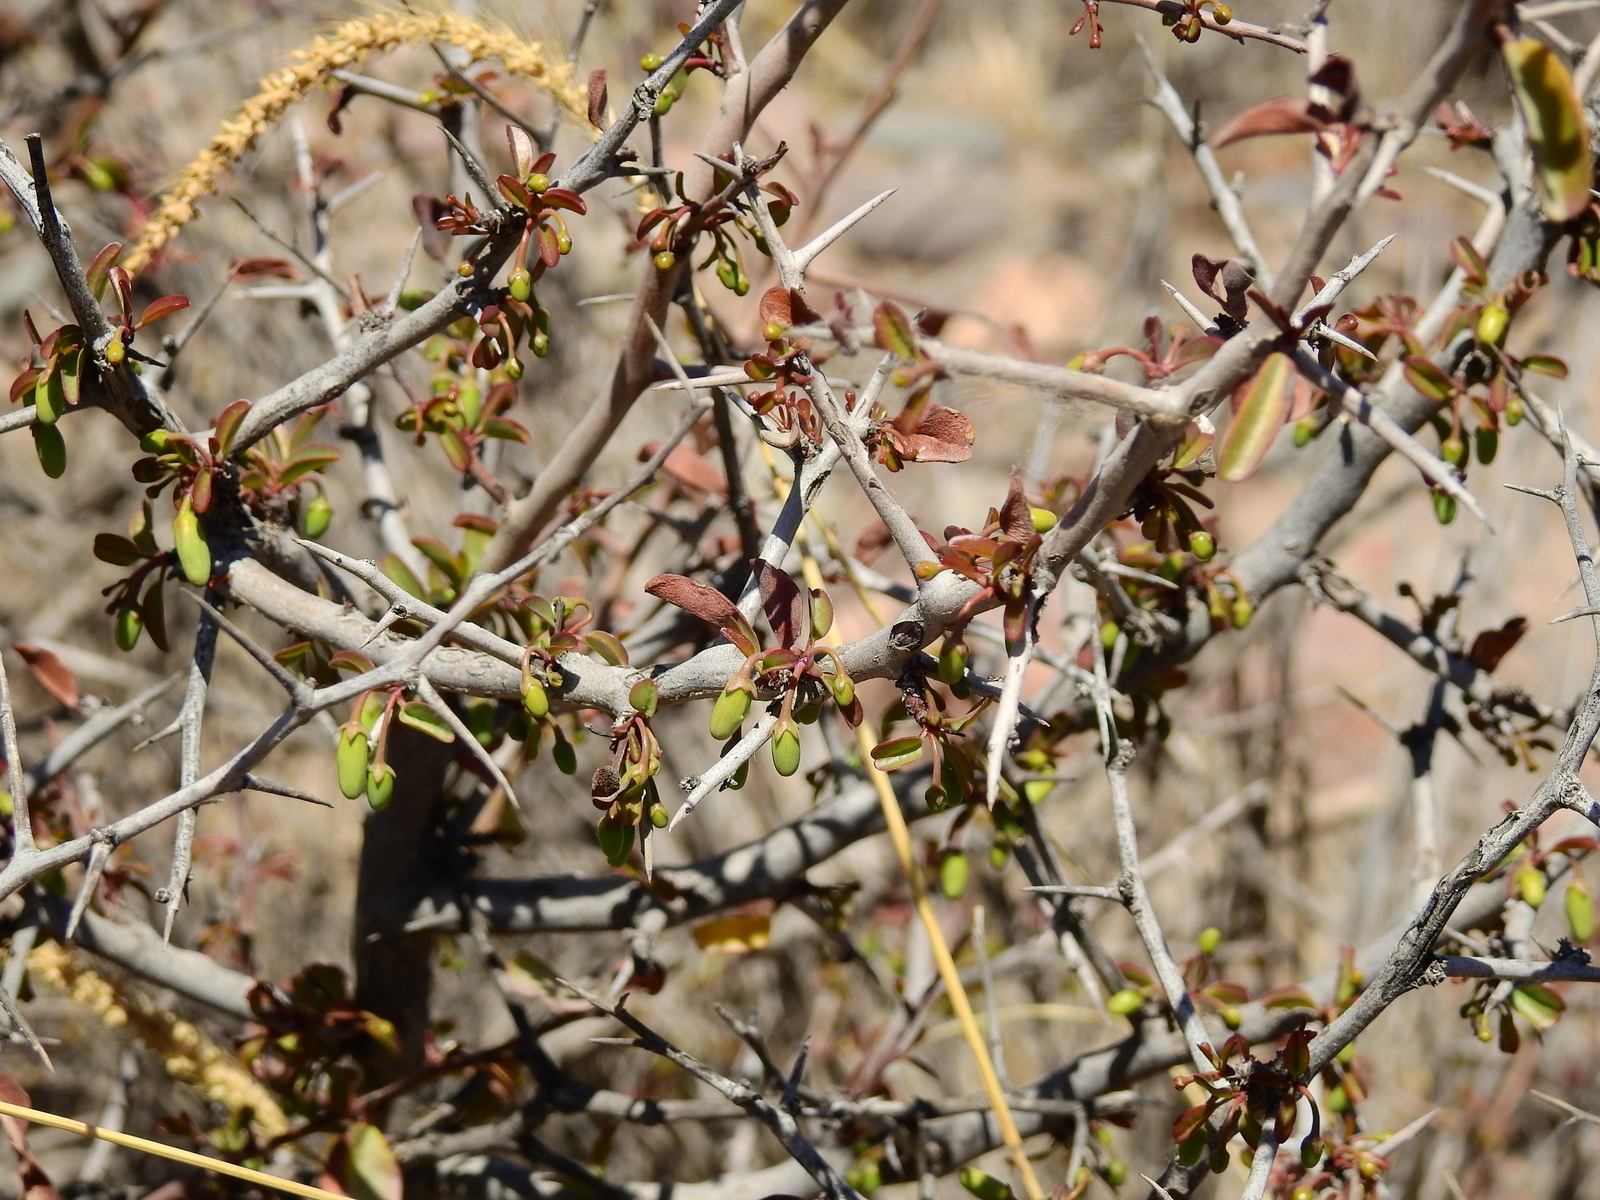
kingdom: Plantae
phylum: Tracheophyta
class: Magnoliopsida
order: Santalales
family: Ximeniaceae
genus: Ximenia
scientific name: Ximenia americana
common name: Tallowwood
